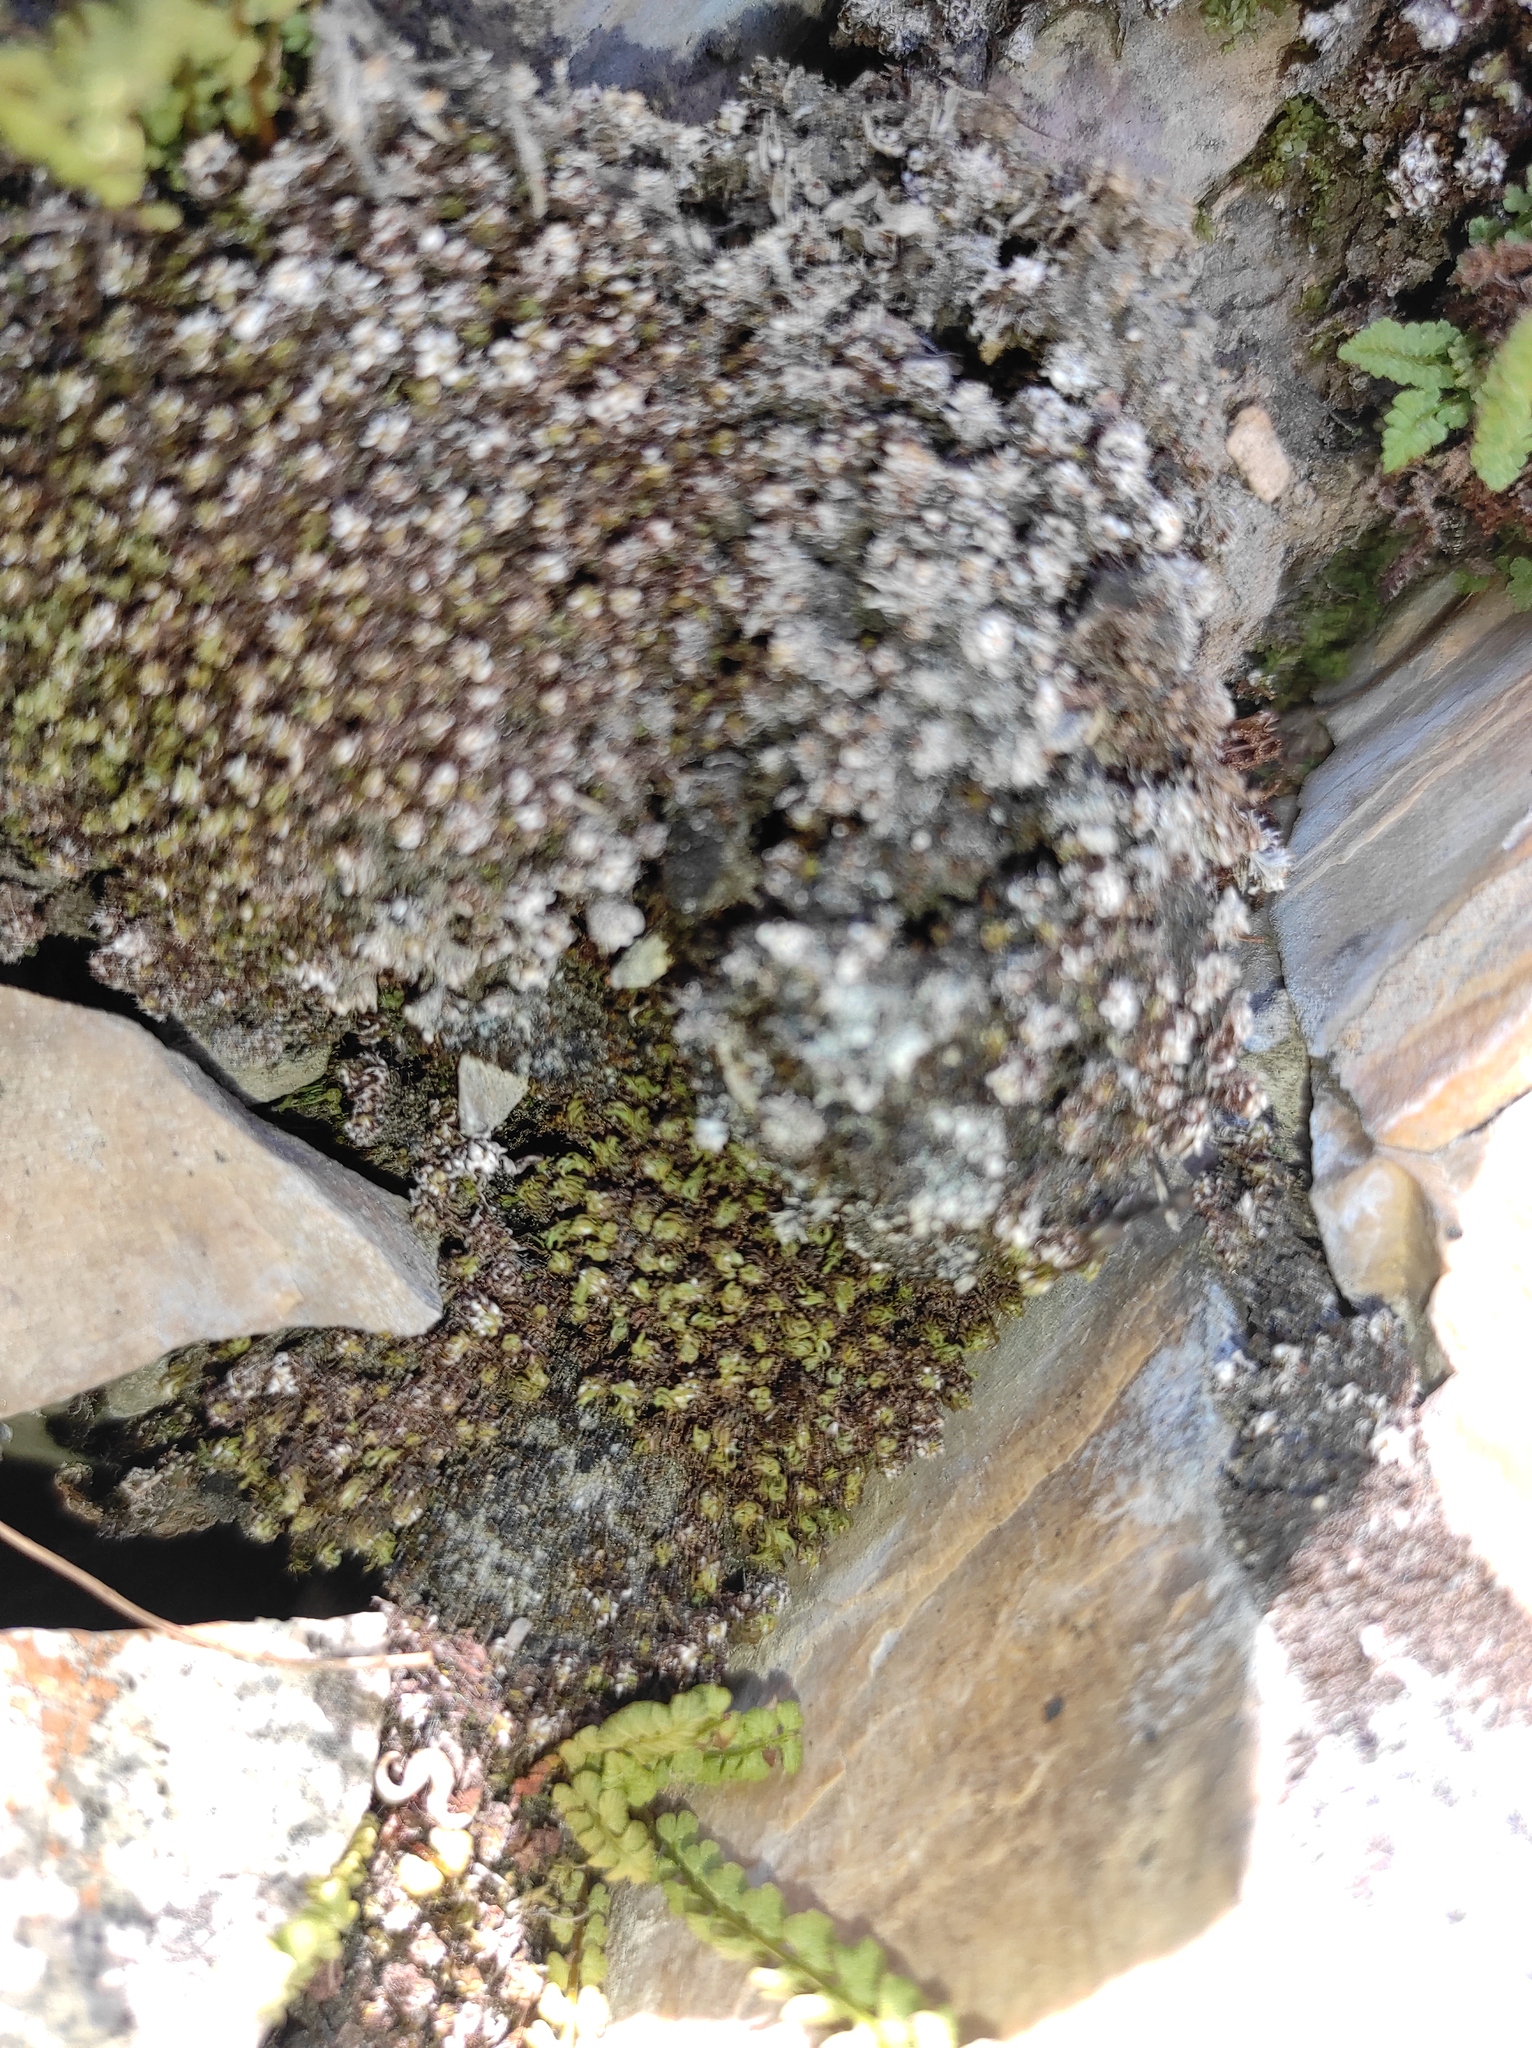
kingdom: Plantae
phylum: Tracheophyta
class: Polypodiopsida
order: Polypodiales
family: Woodsiaceae
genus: Woodsia
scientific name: Woodsia glabella
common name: Smooth woodsia
